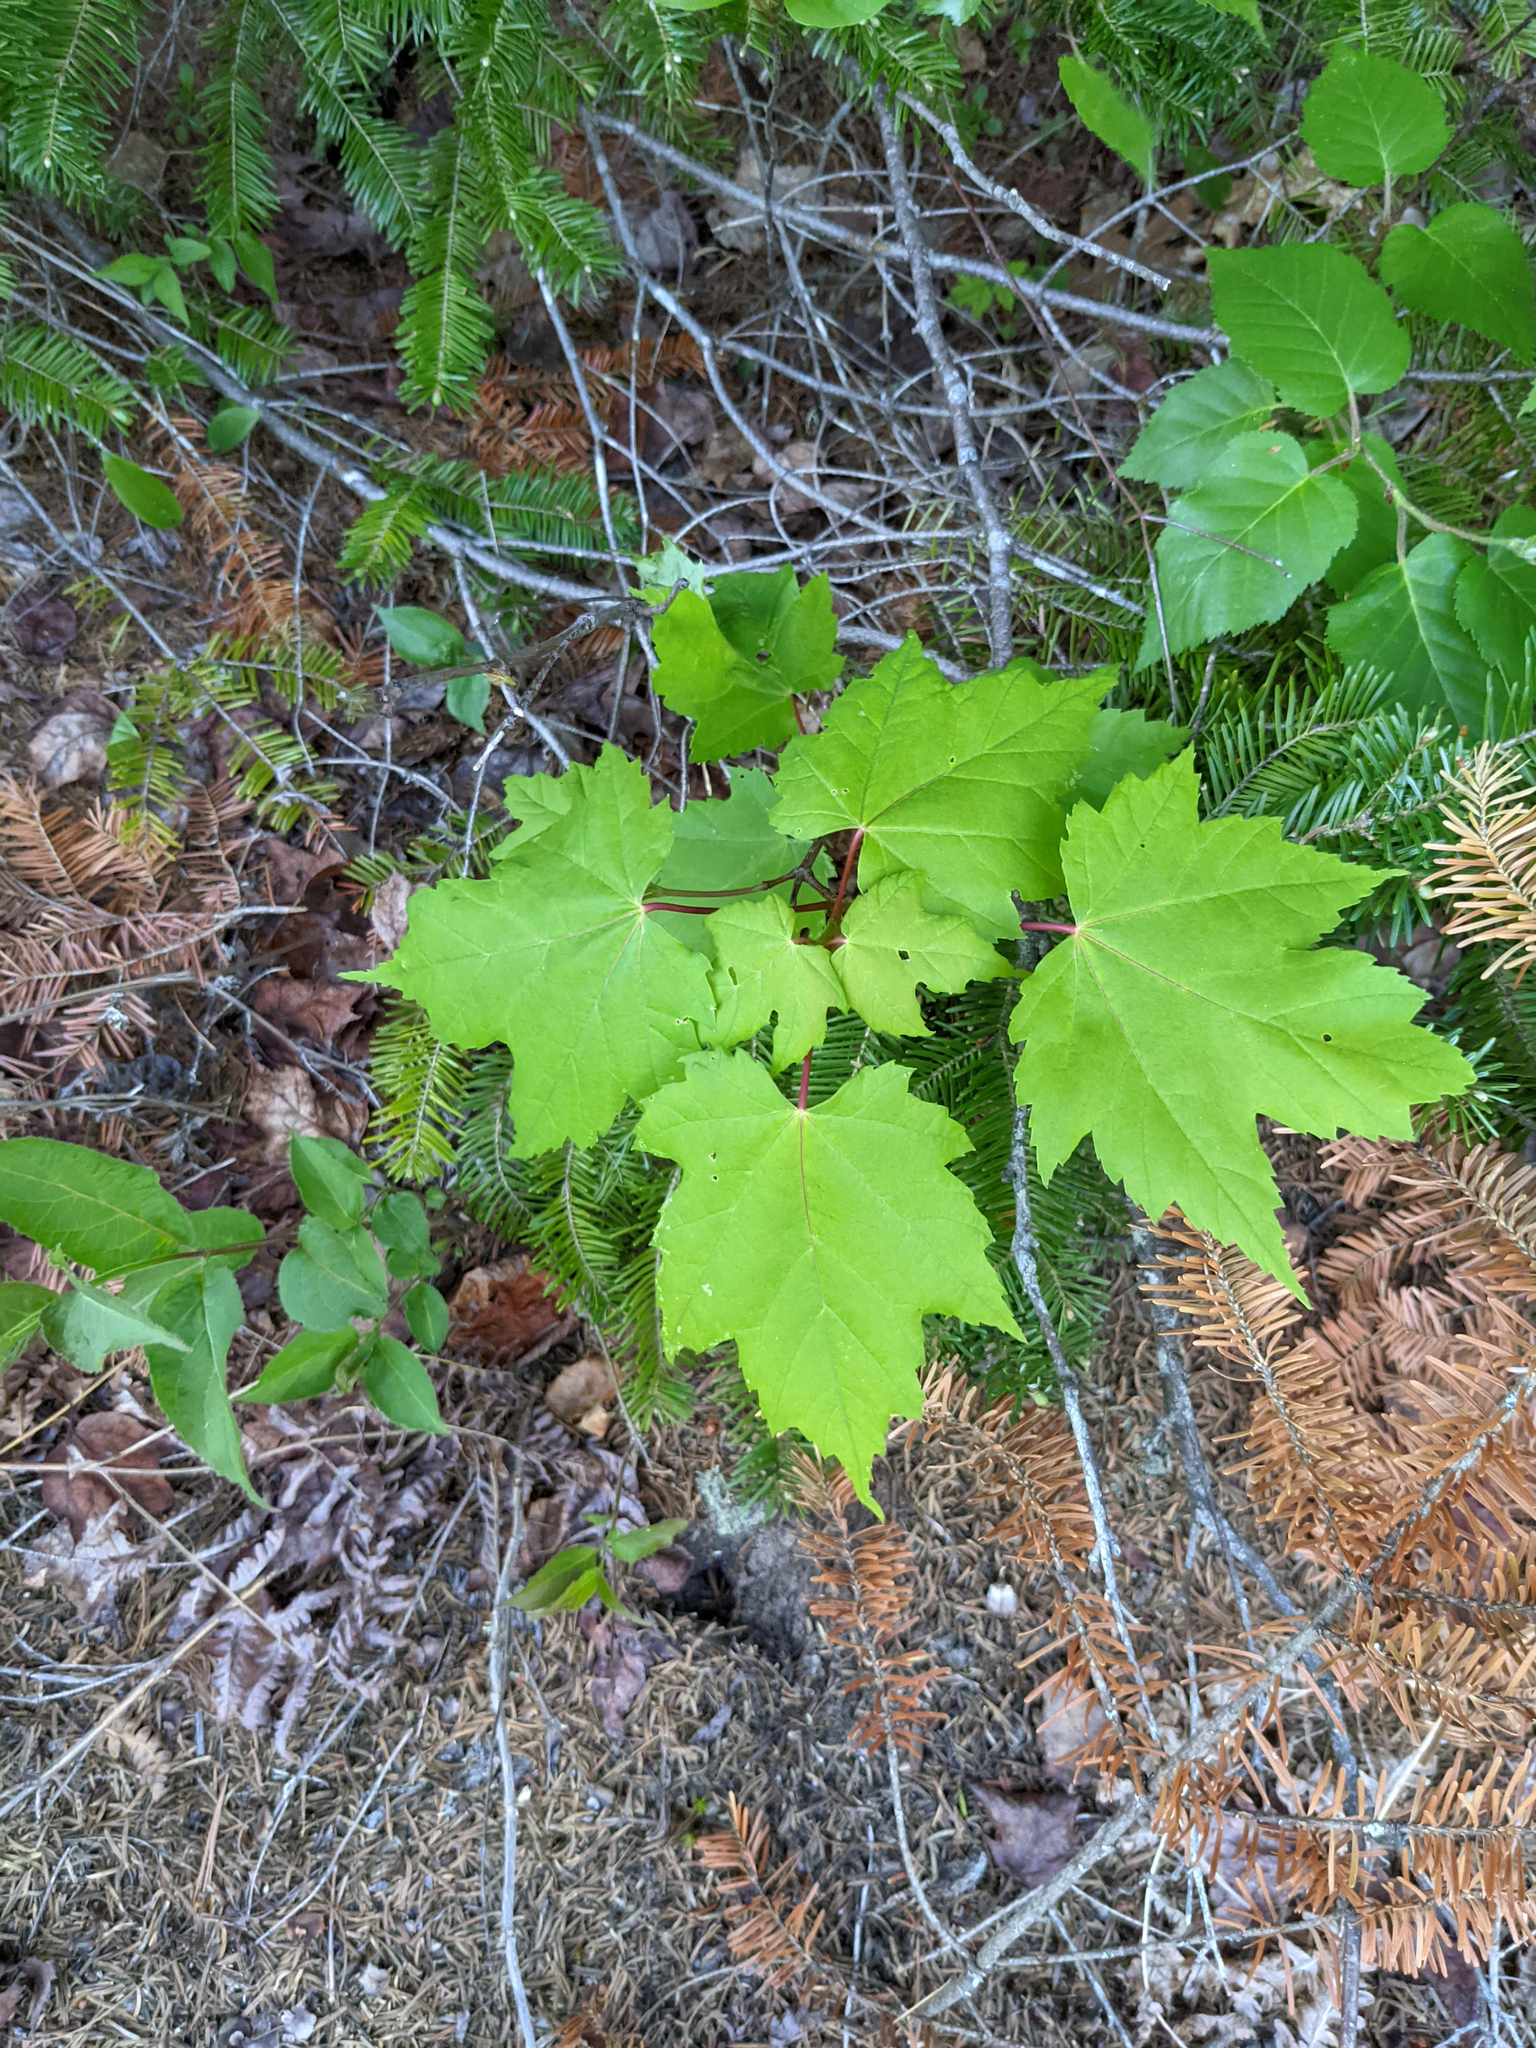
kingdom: Plantae
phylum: Tracheophyta
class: Magnoliopsida
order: Sapindales
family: Sapindaceae
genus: Acer
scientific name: Acer rubrum
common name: Red maple
